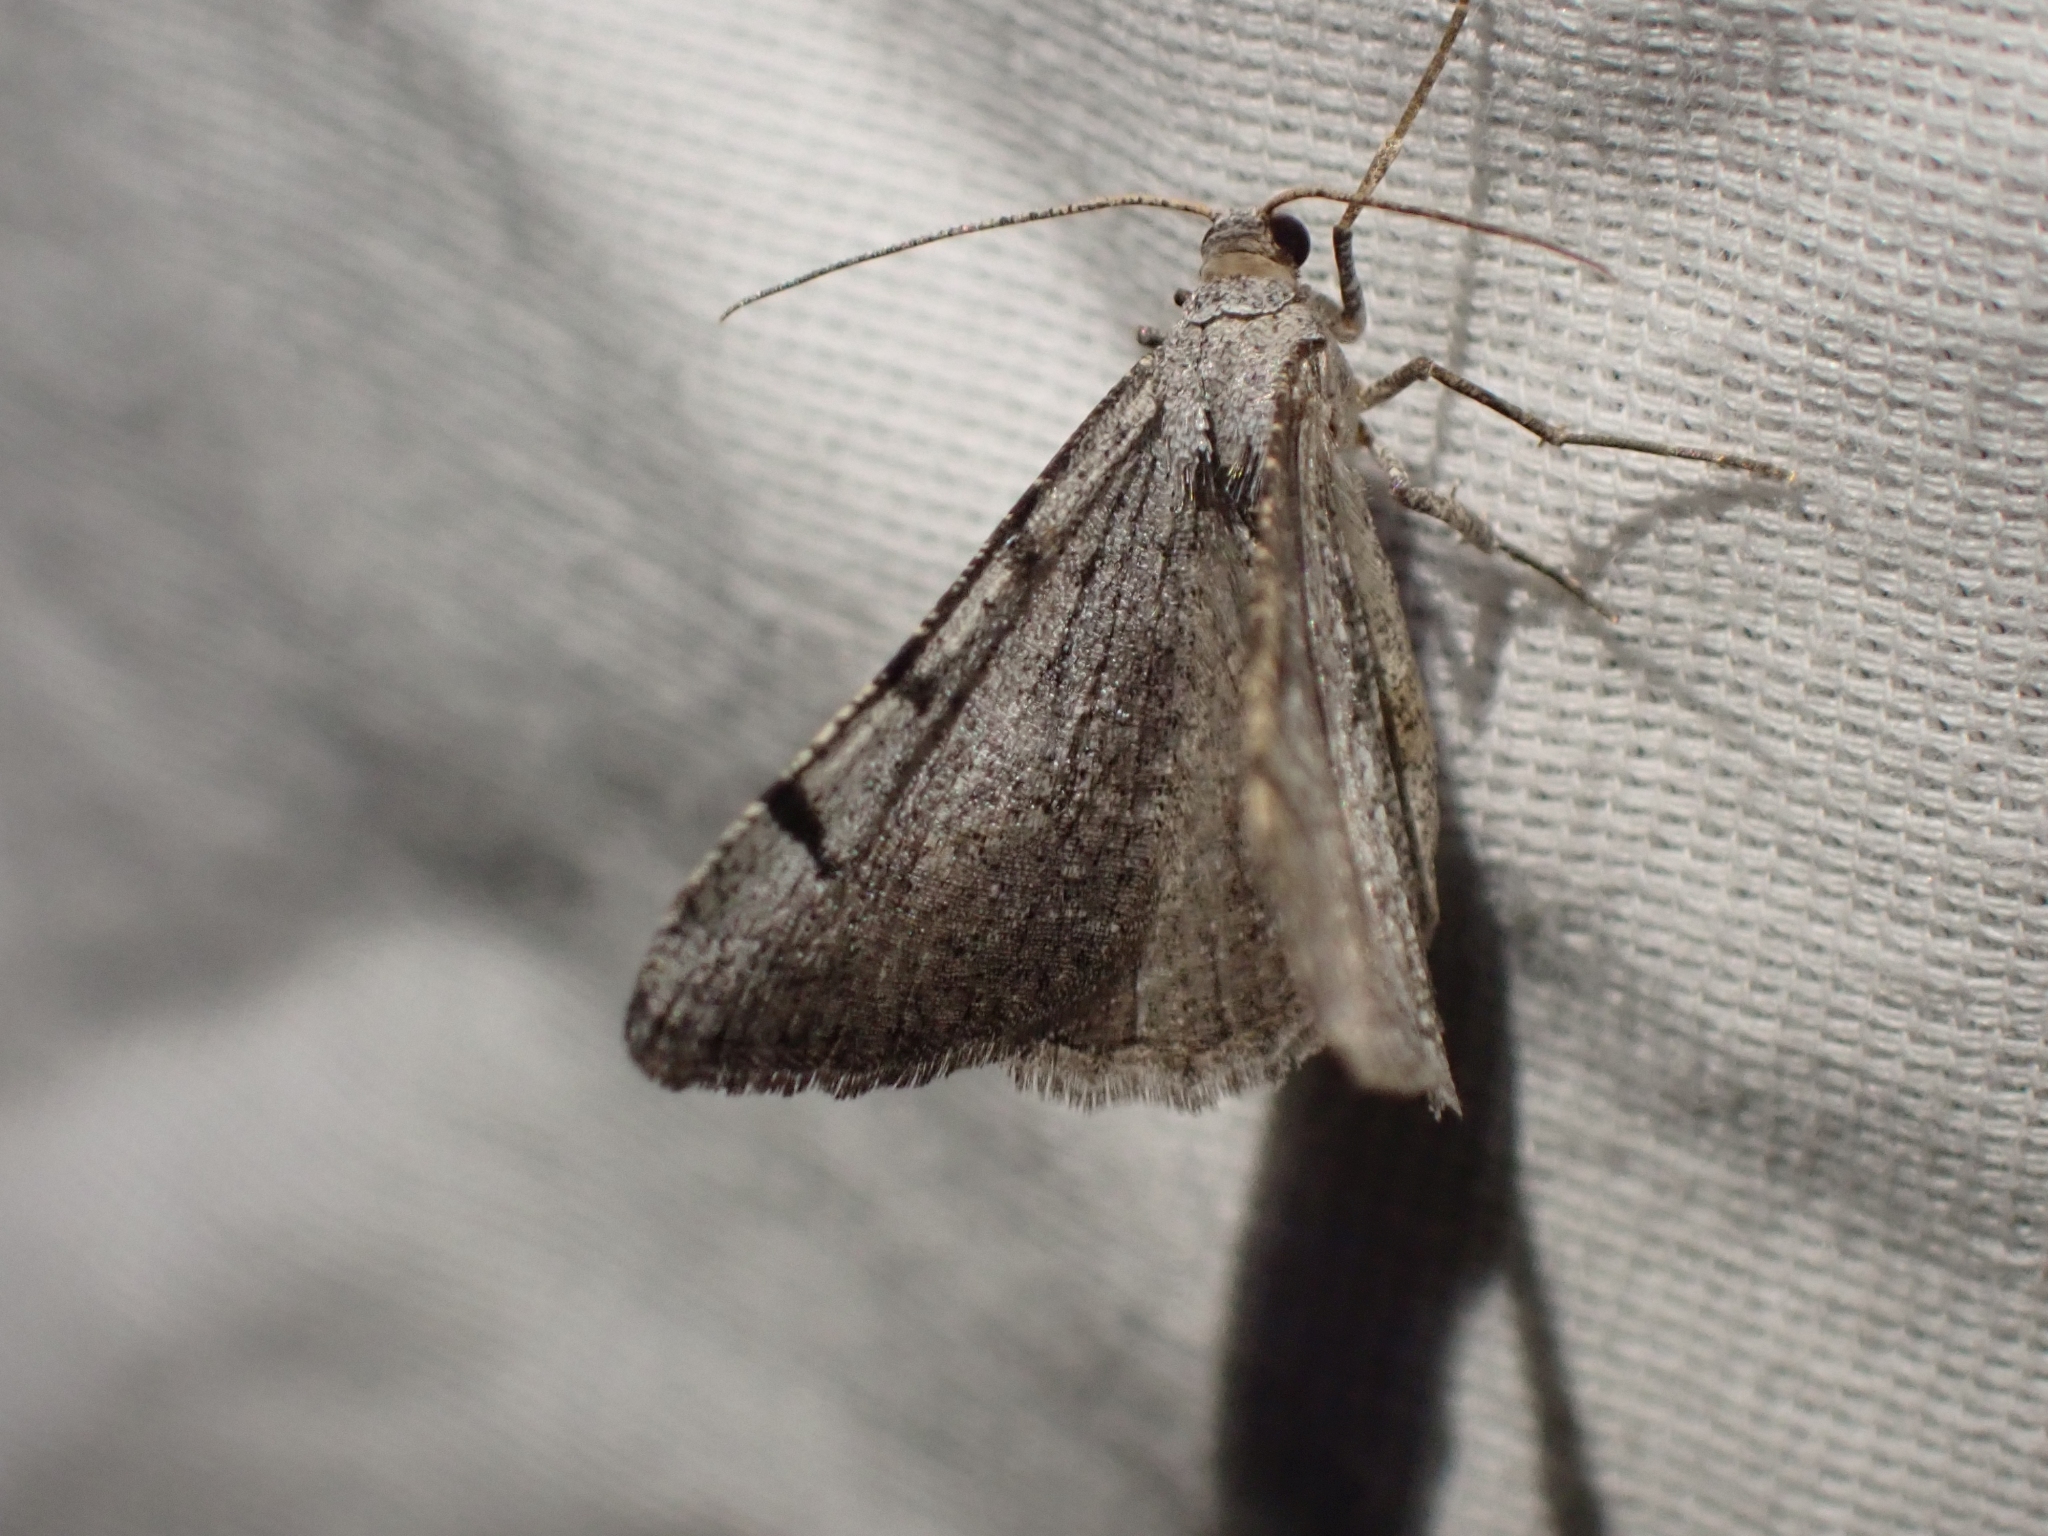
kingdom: Animalia
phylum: Arthropoda
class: Insecta
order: Lepidoptera
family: Geometridae
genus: Digrammia
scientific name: Digrammia triviata
